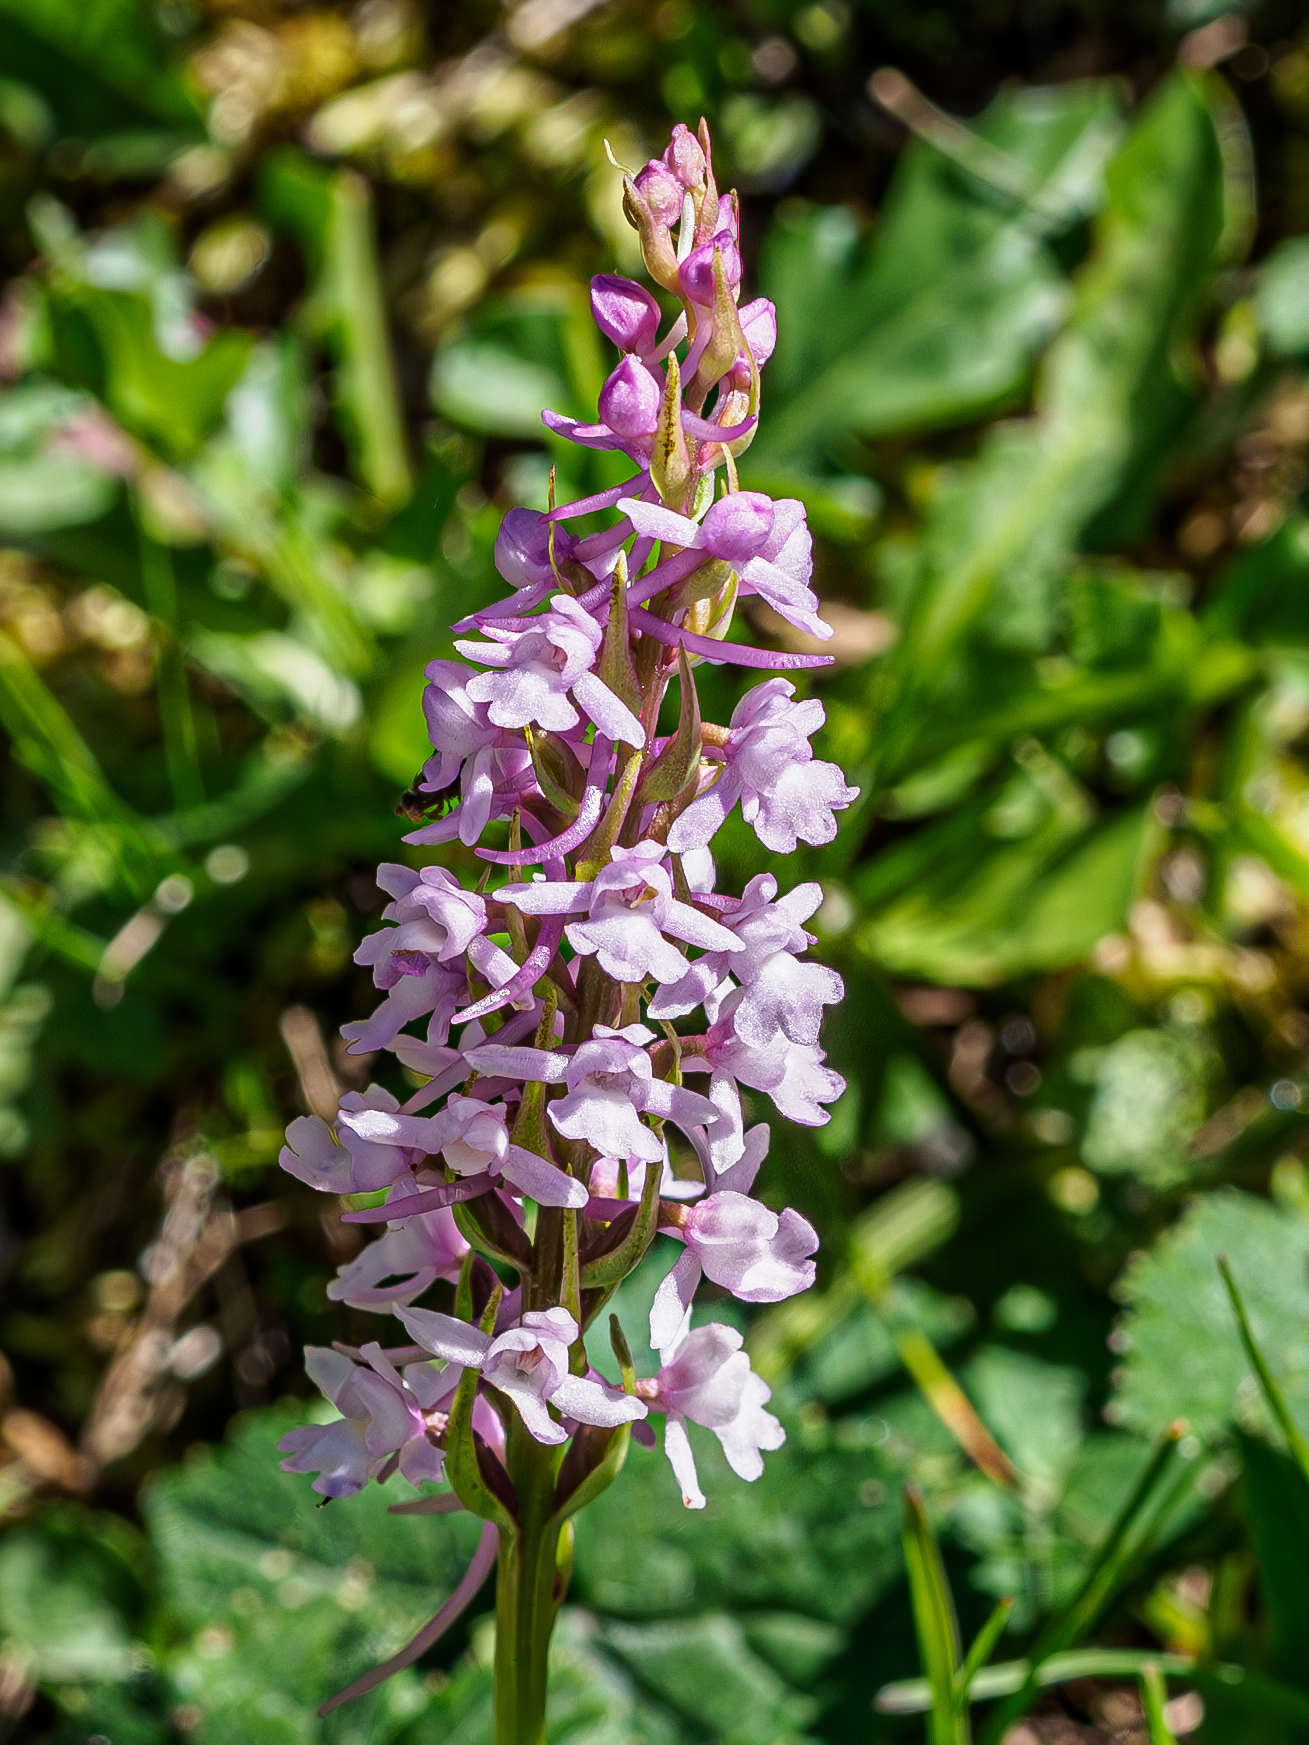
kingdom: Plantae
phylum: Tracheophyta
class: Liliopsida
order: Asparagales
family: Orchidaceae
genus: Gymnadenia
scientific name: Gymnadenia conopsea
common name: Fragrant orchid
